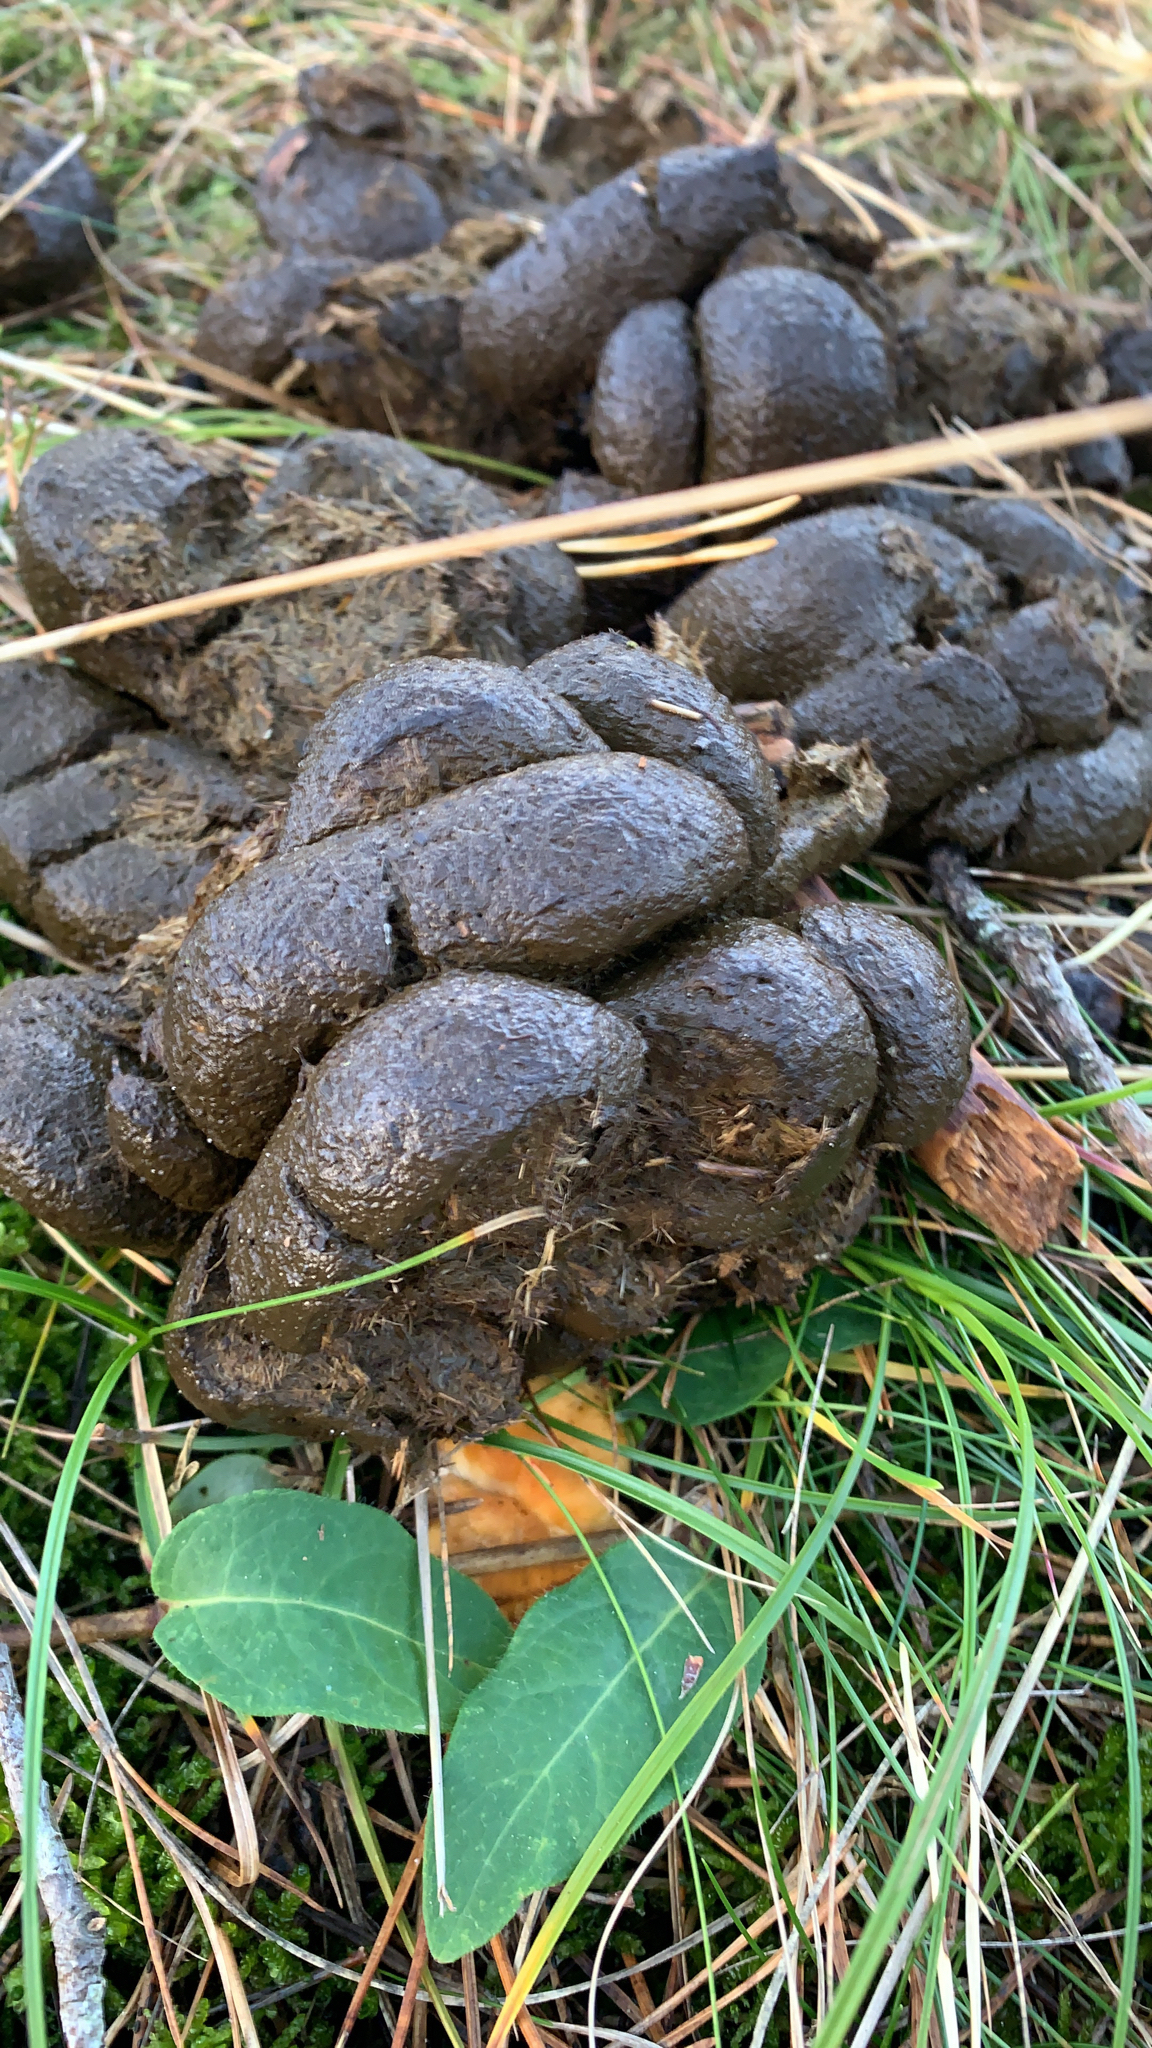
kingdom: Animalia
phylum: Chordata
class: Mammalia
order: Perissodactyla
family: Equidae
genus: Equus
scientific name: Equus caballus
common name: Horse
